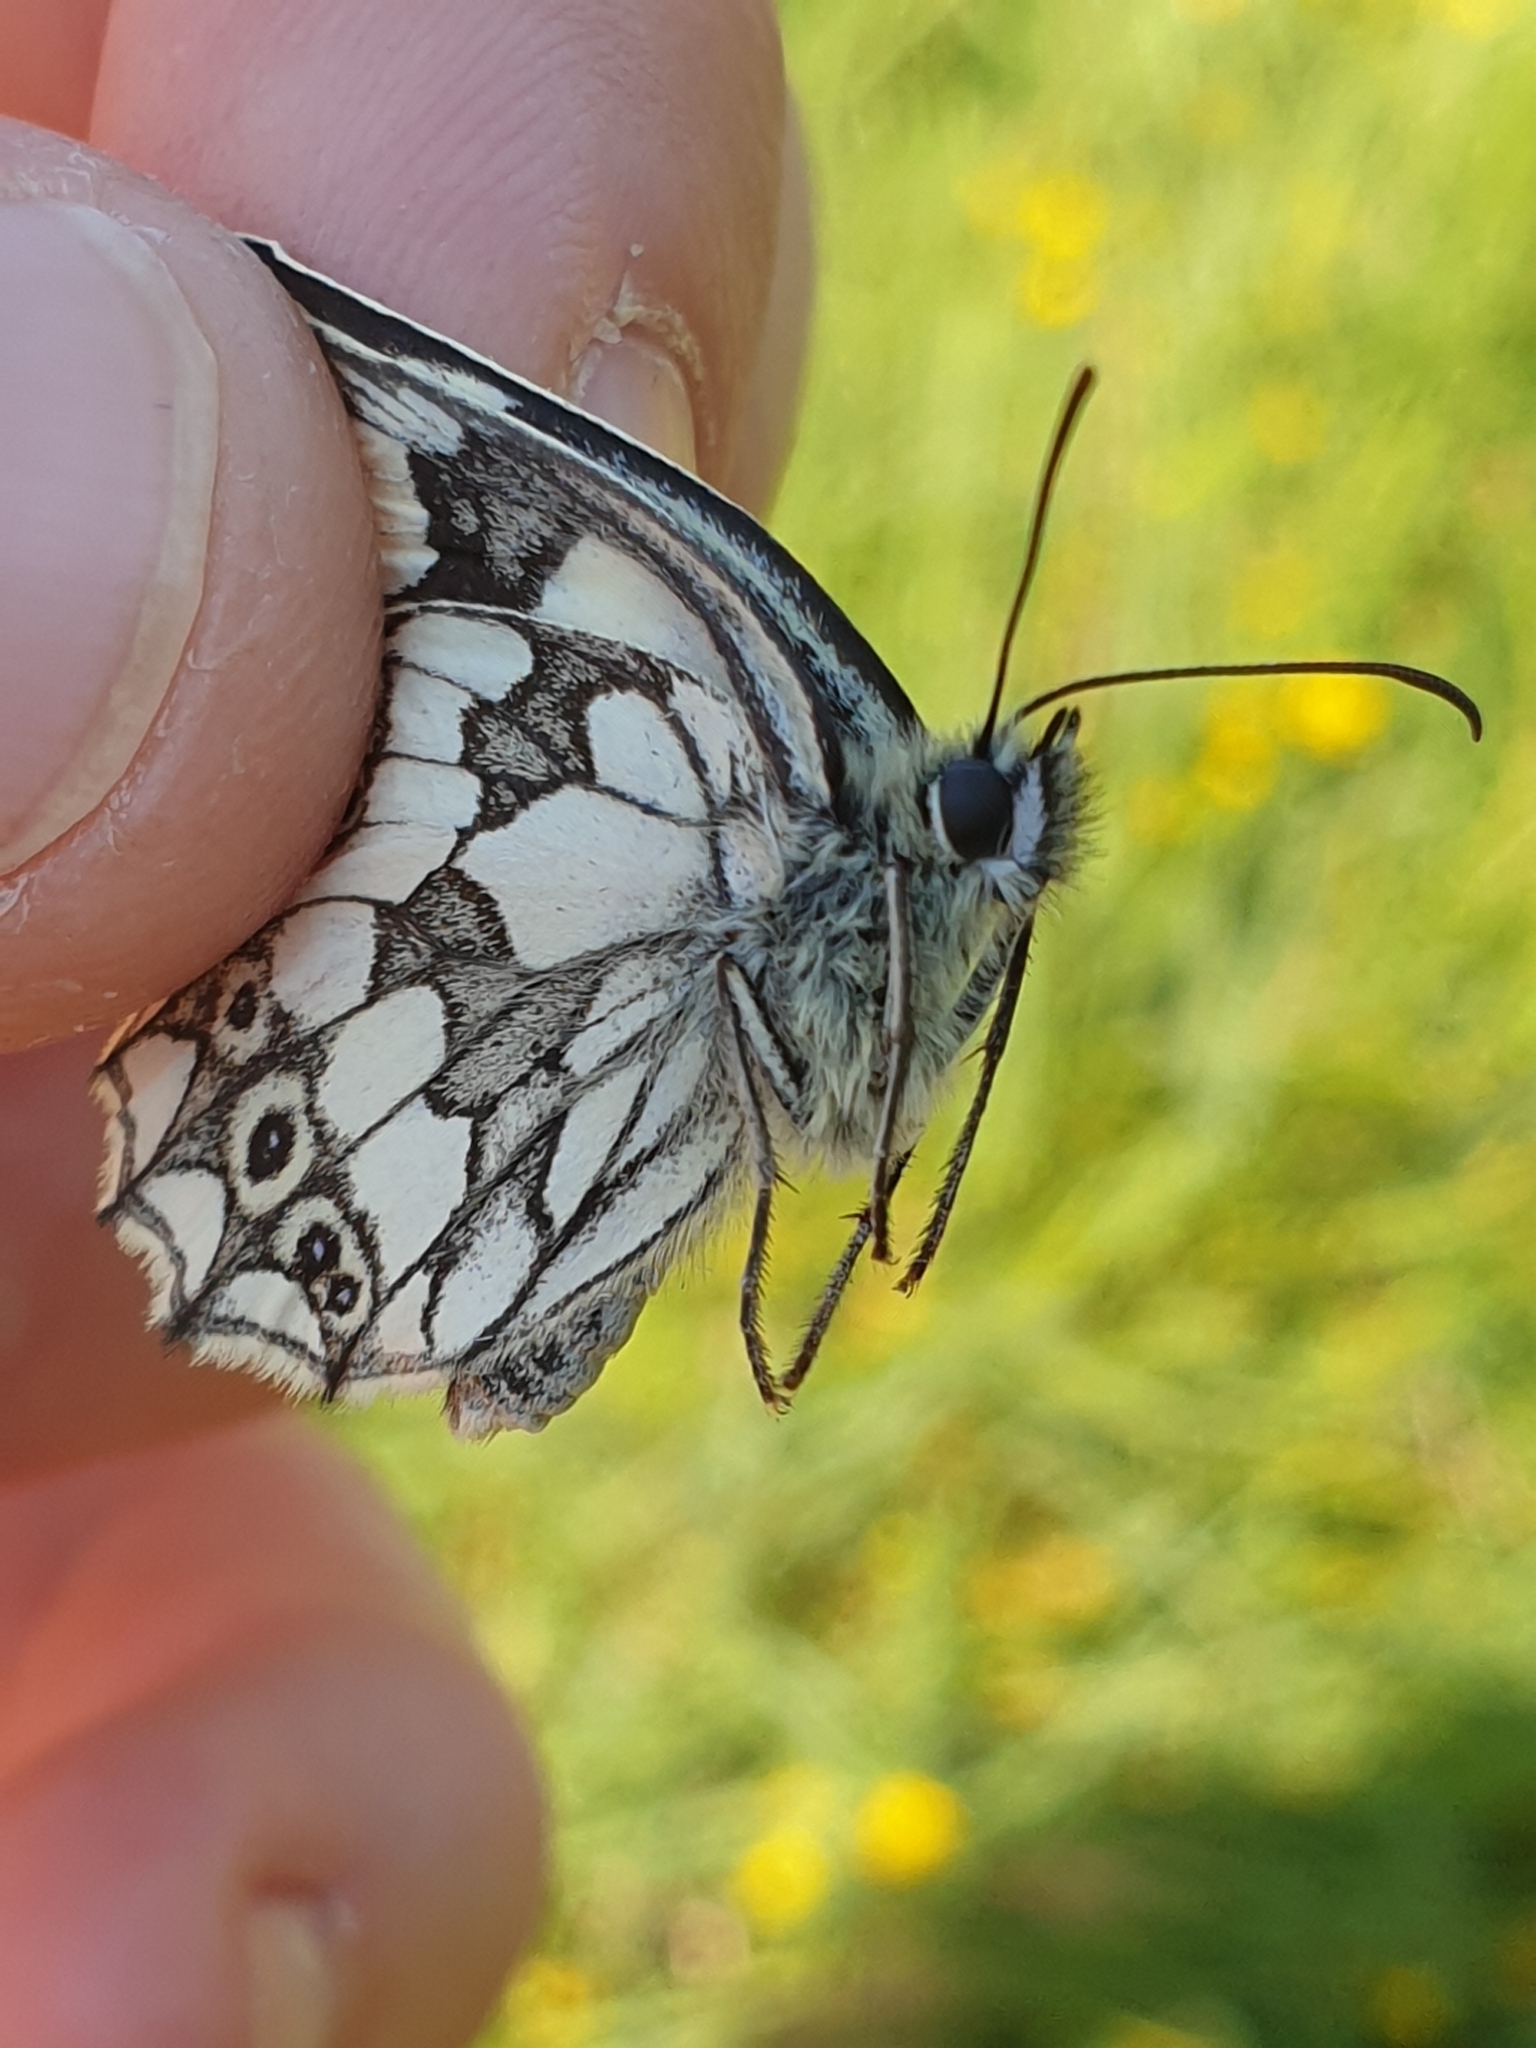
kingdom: Animalia
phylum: Arthropoda
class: Insecta
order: Lepidoptera
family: Nymphalidae
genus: Melanargia
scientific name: Melanargia galathea
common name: Marbled white
